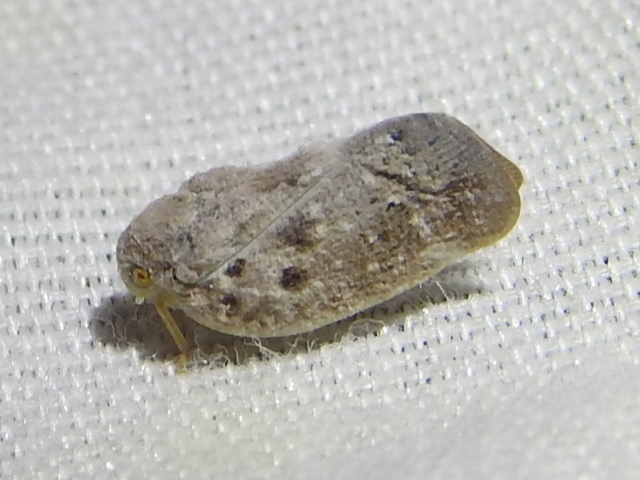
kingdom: Animalia
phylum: Arthropoda
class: Insecta
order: Hemiptera
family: Flatidae
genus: Metcalfa
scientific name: Metcalfa pruinosa
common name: Citrus flatid planthopper
